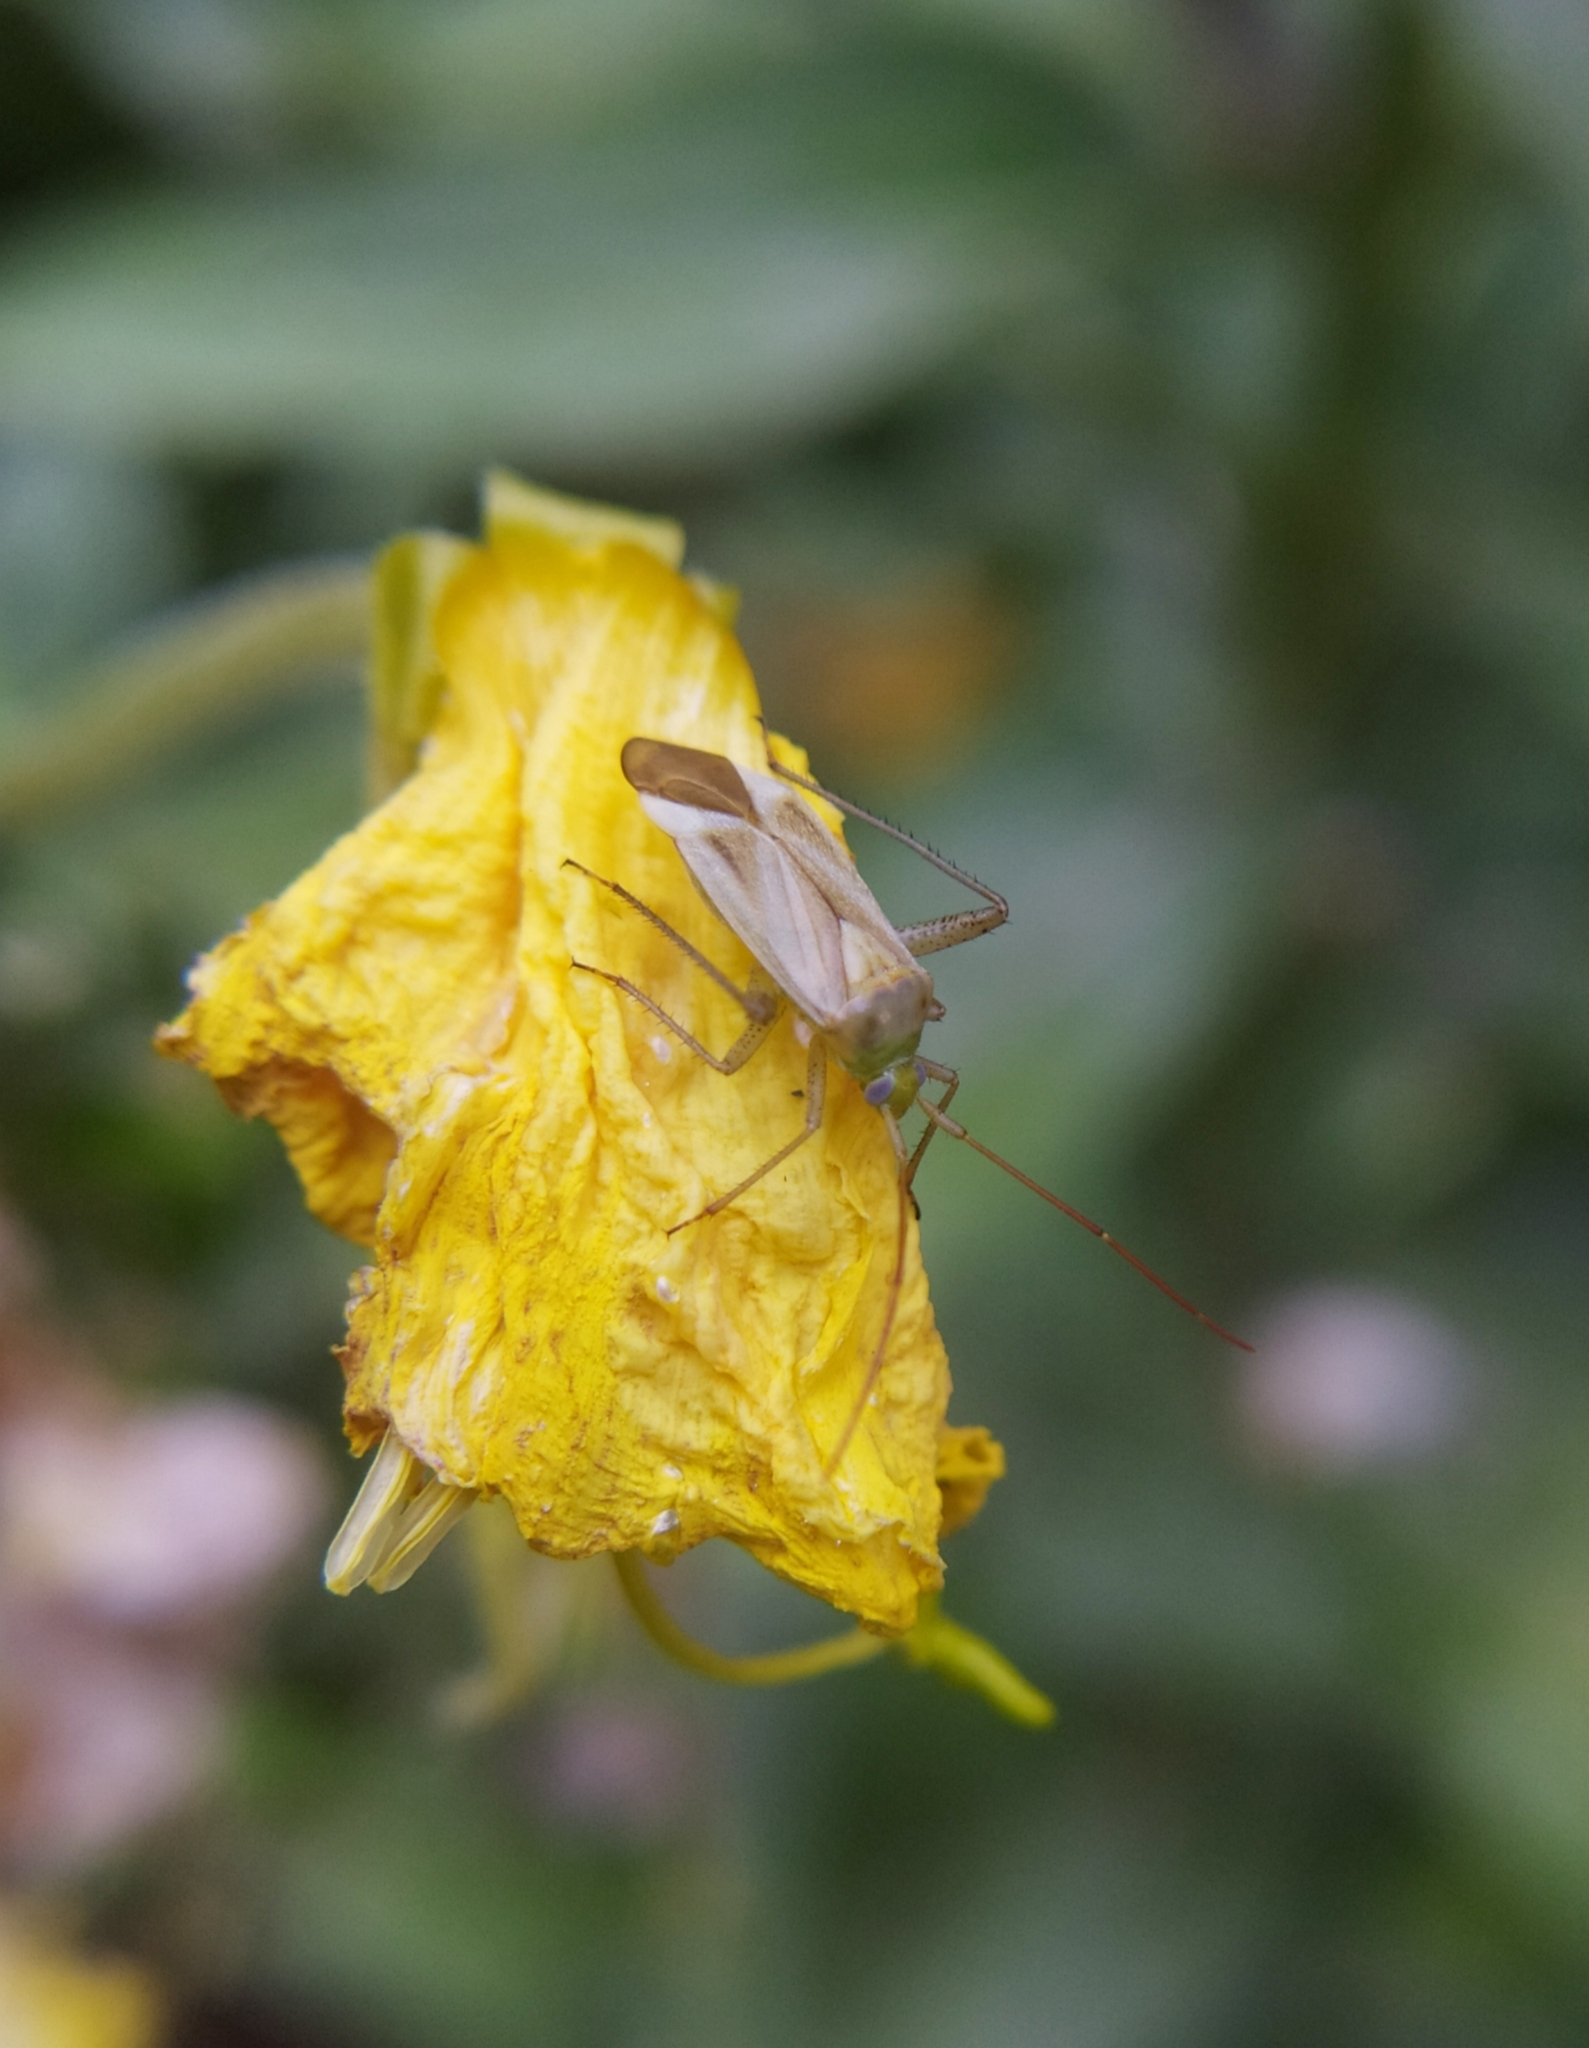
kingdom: Animalia
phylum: Arthropoda
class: Insecta
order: Hemiptera
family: Miridae
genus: Adelphocoris
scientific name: Adelphocoris lineolatus
